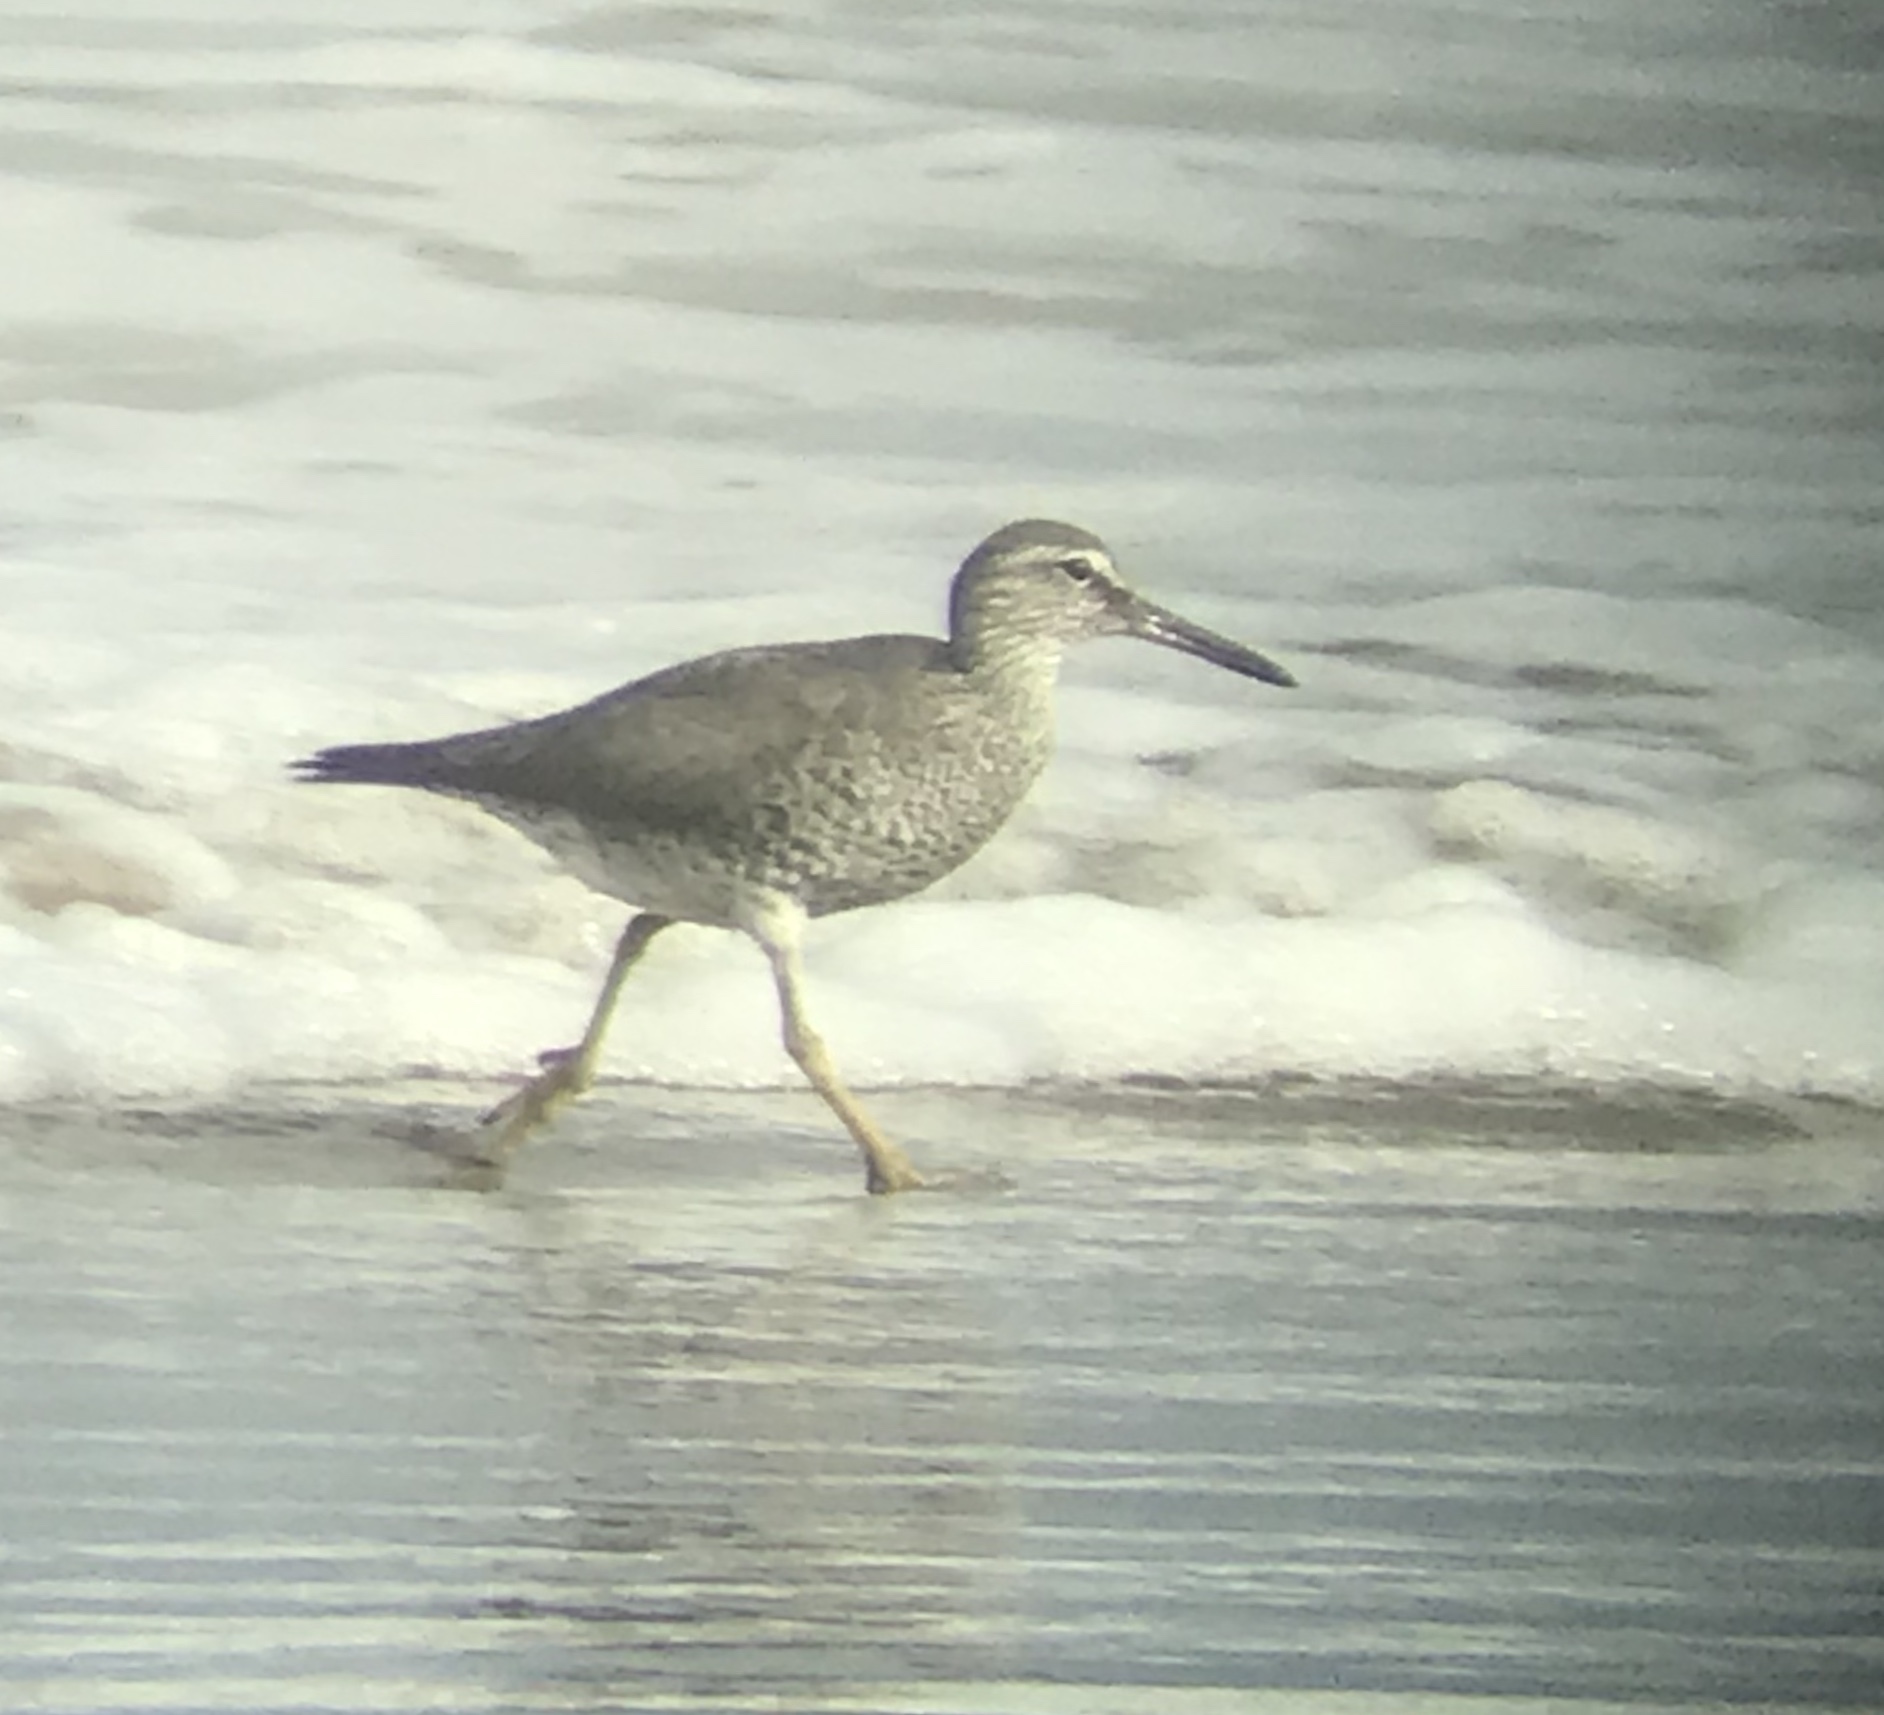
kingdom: Animalia
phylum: Chordata
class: Aves
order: Charadriiformes
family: Scolopacidae
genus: Tringa
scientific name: Tringa incana
